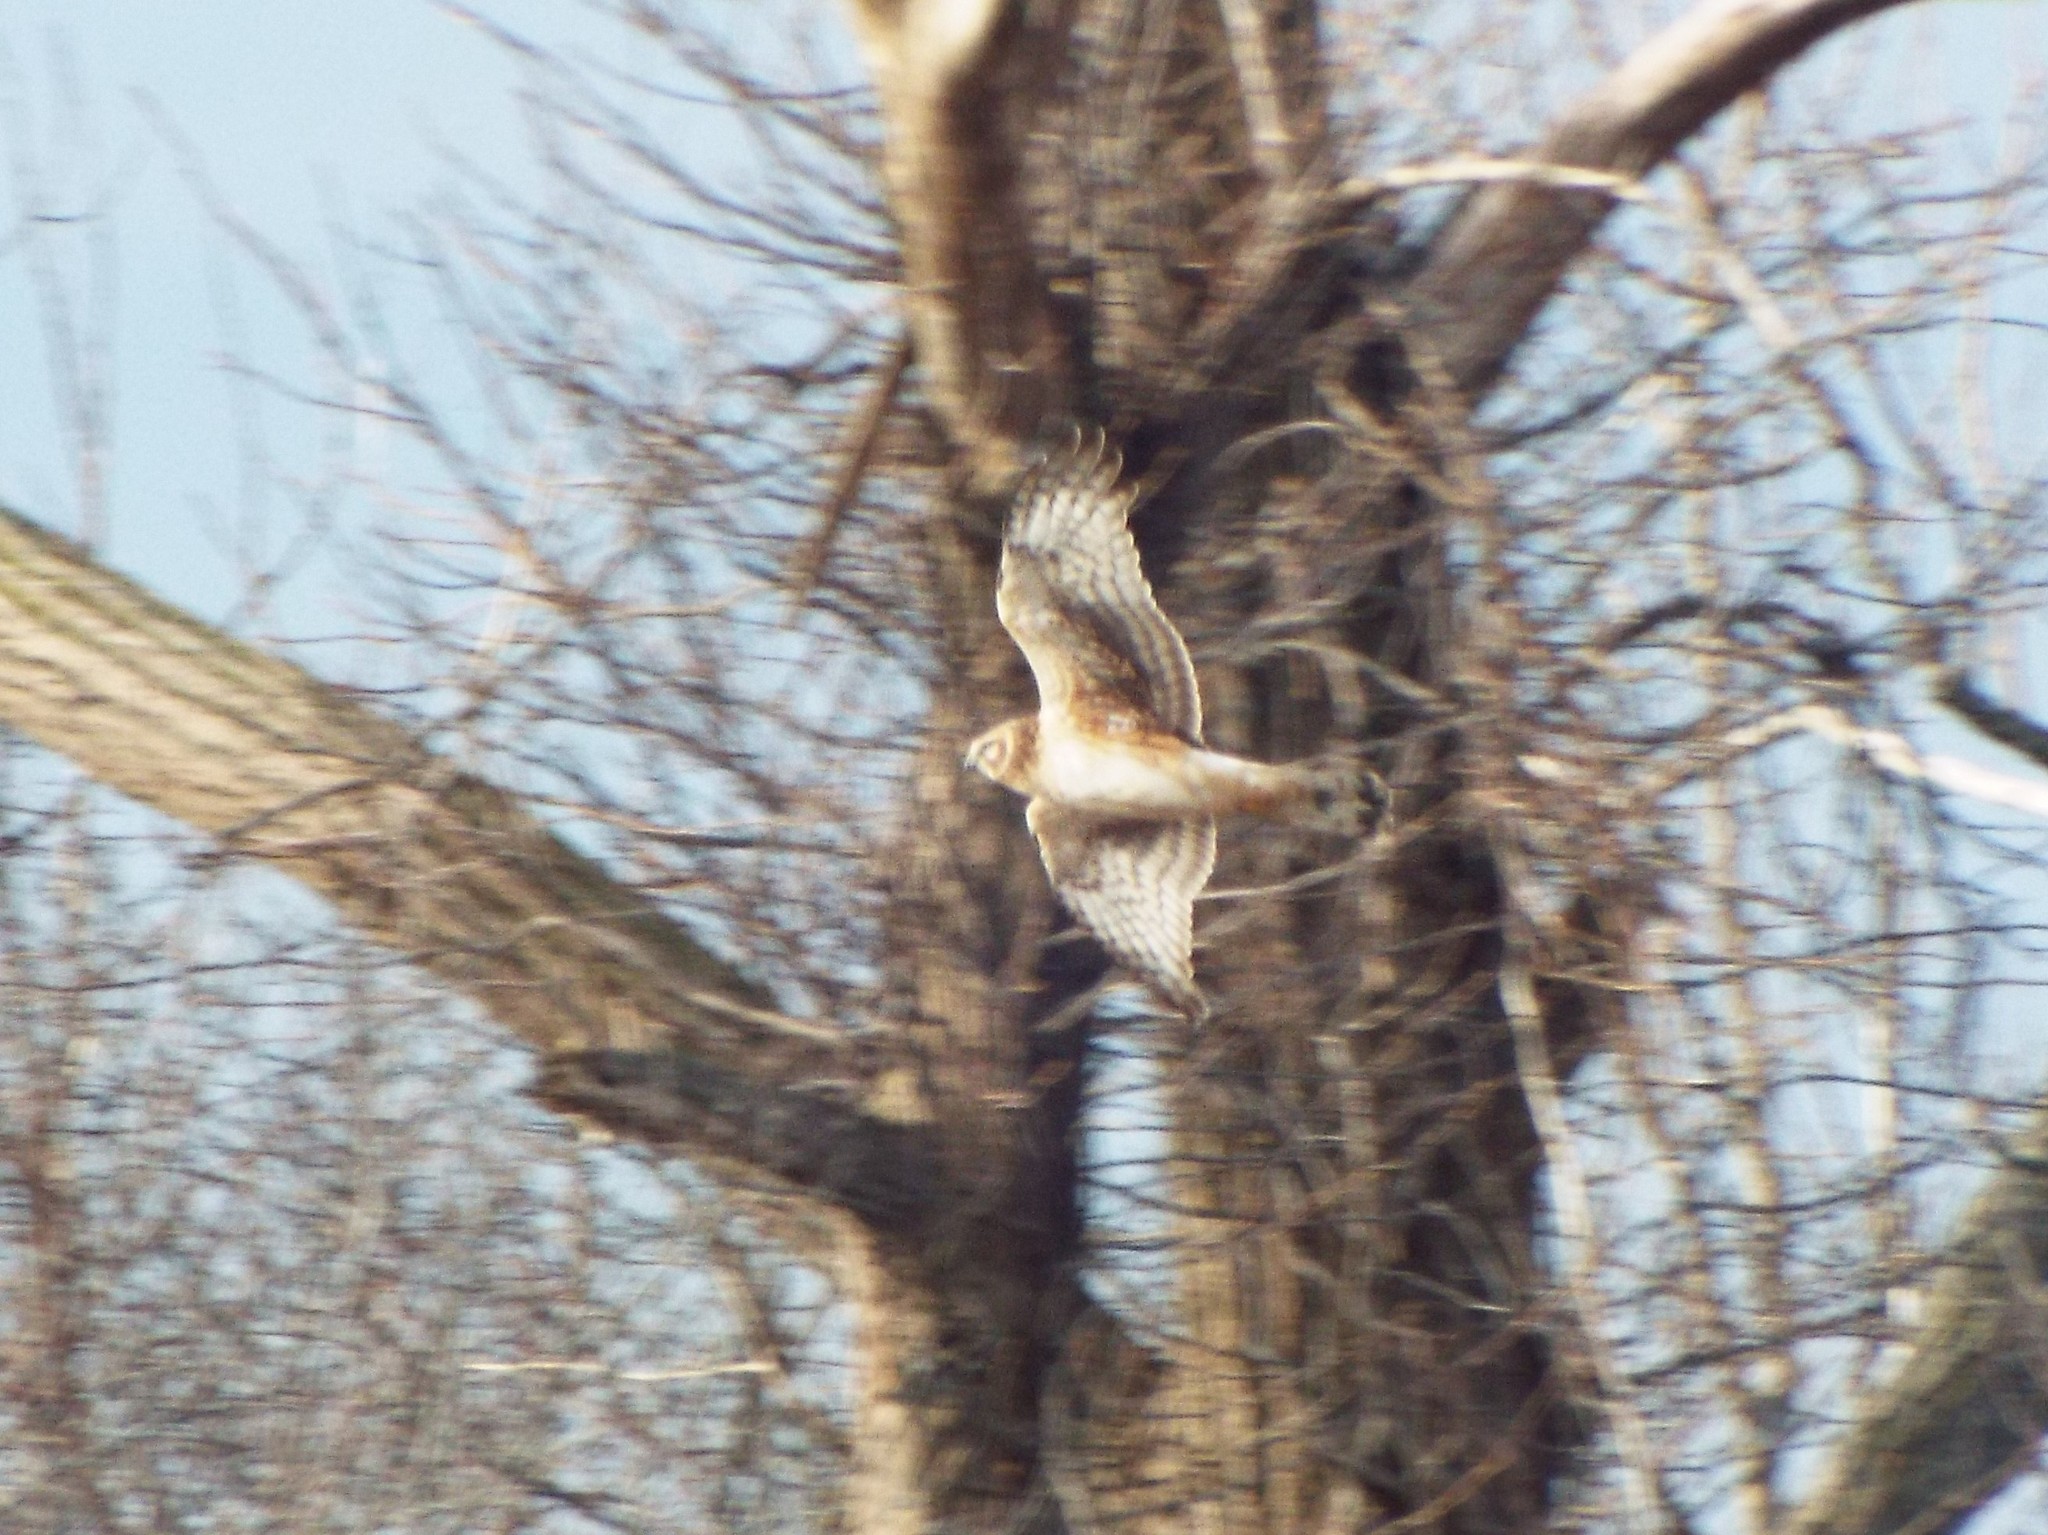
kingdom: Animalia
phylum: Chordata
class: Aves
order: Accipitriformes
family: Accipitridae
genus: Circus
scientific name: Circus cyaneus
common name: Hen harrier
